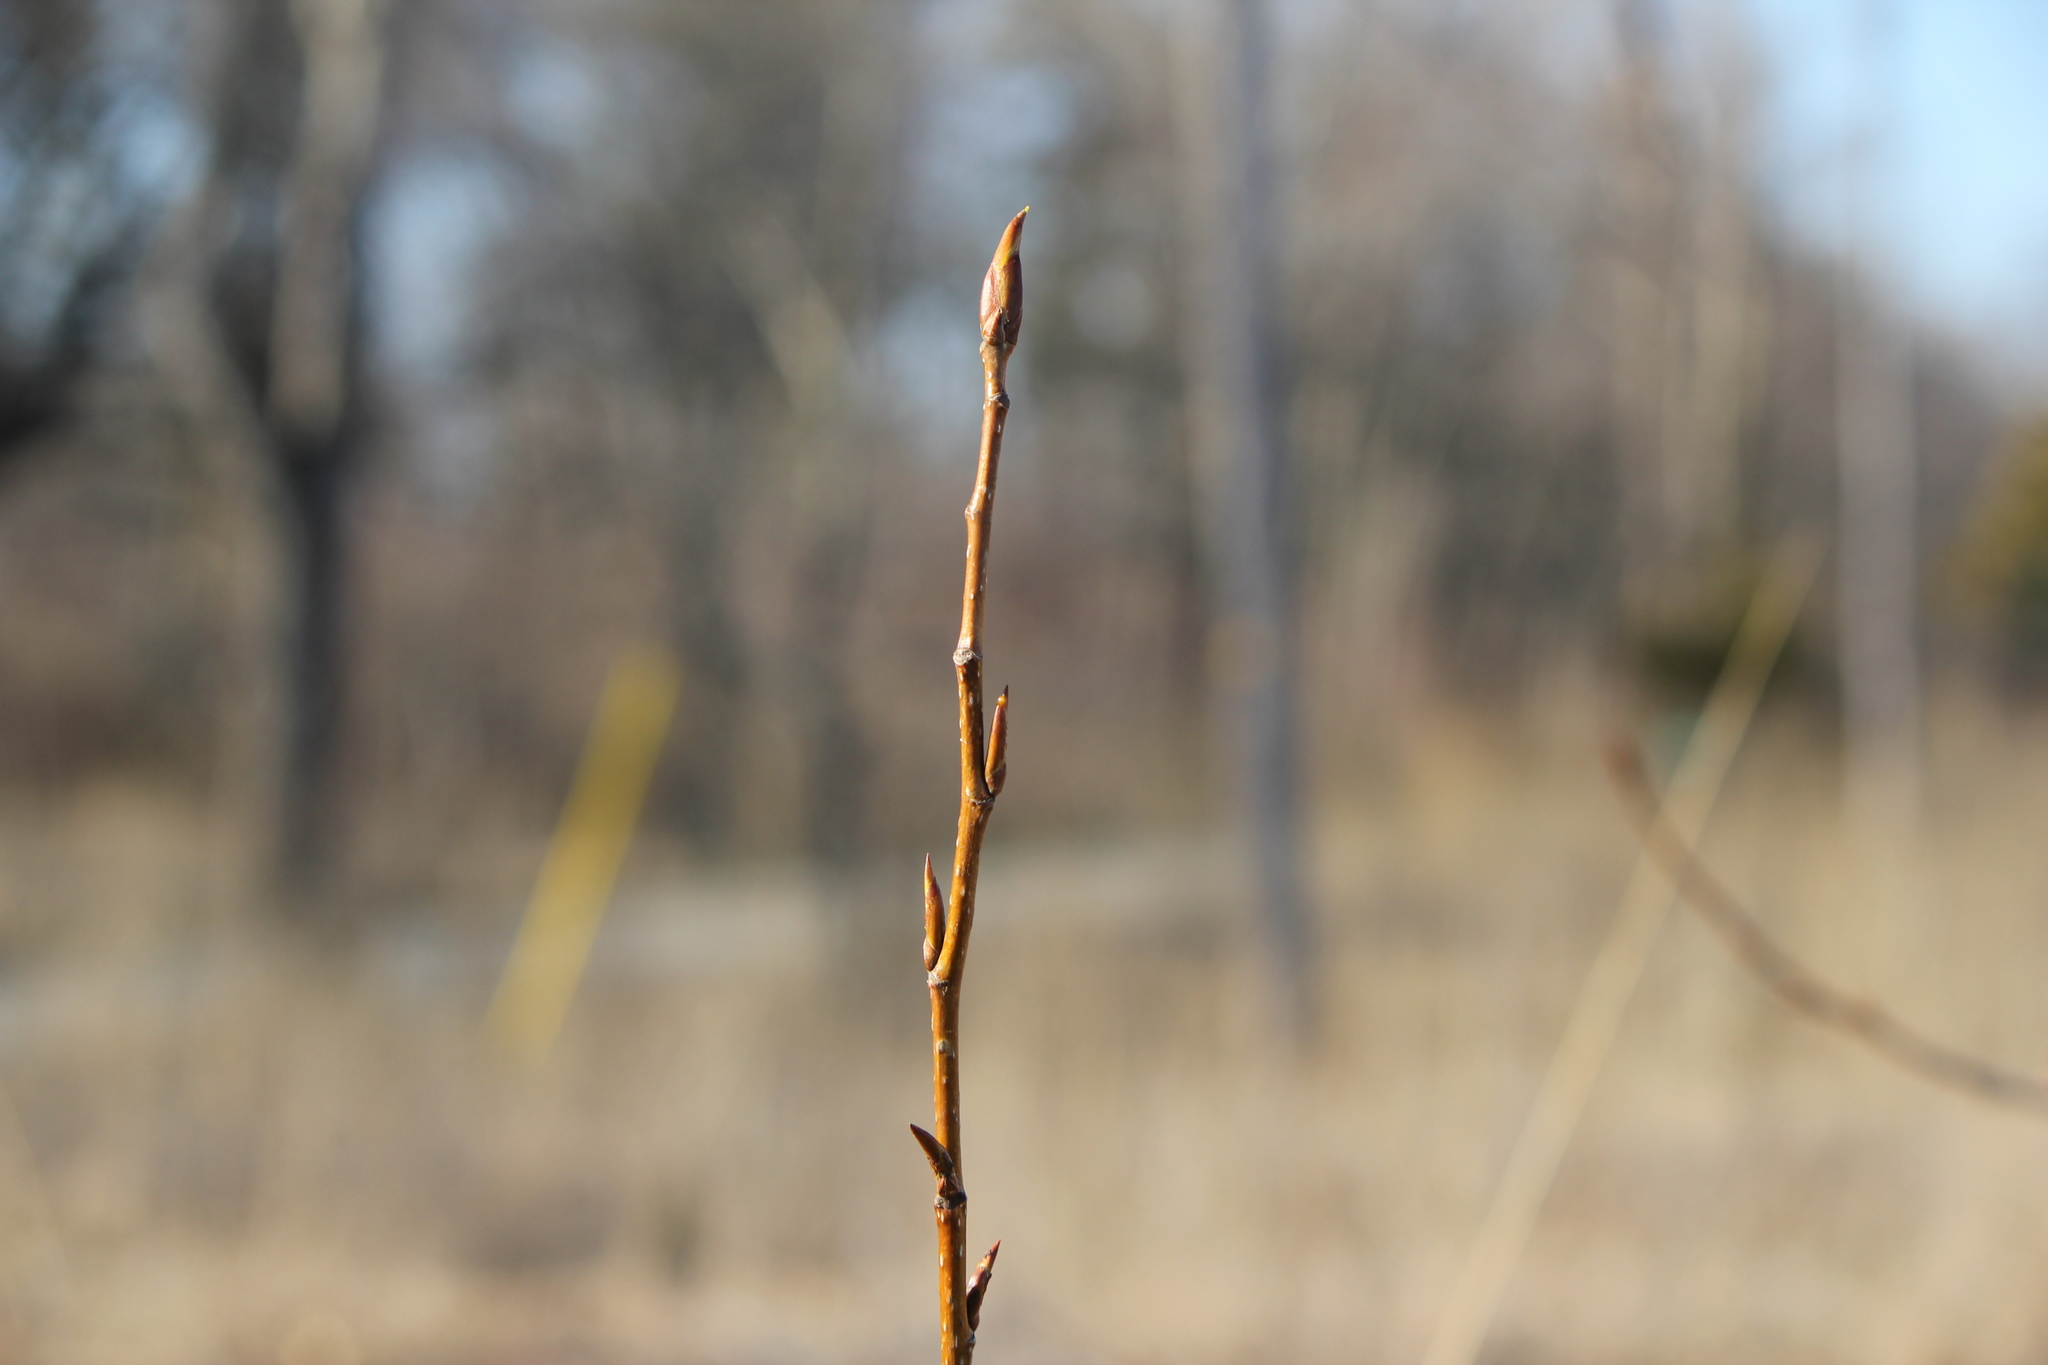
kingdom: Plantae
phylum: Tracheophyta
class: Magnoliopsida
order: Malpighiales
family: Salicaceae
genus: Populus
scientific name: Populus deltoides
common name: Eastern cottonwood
